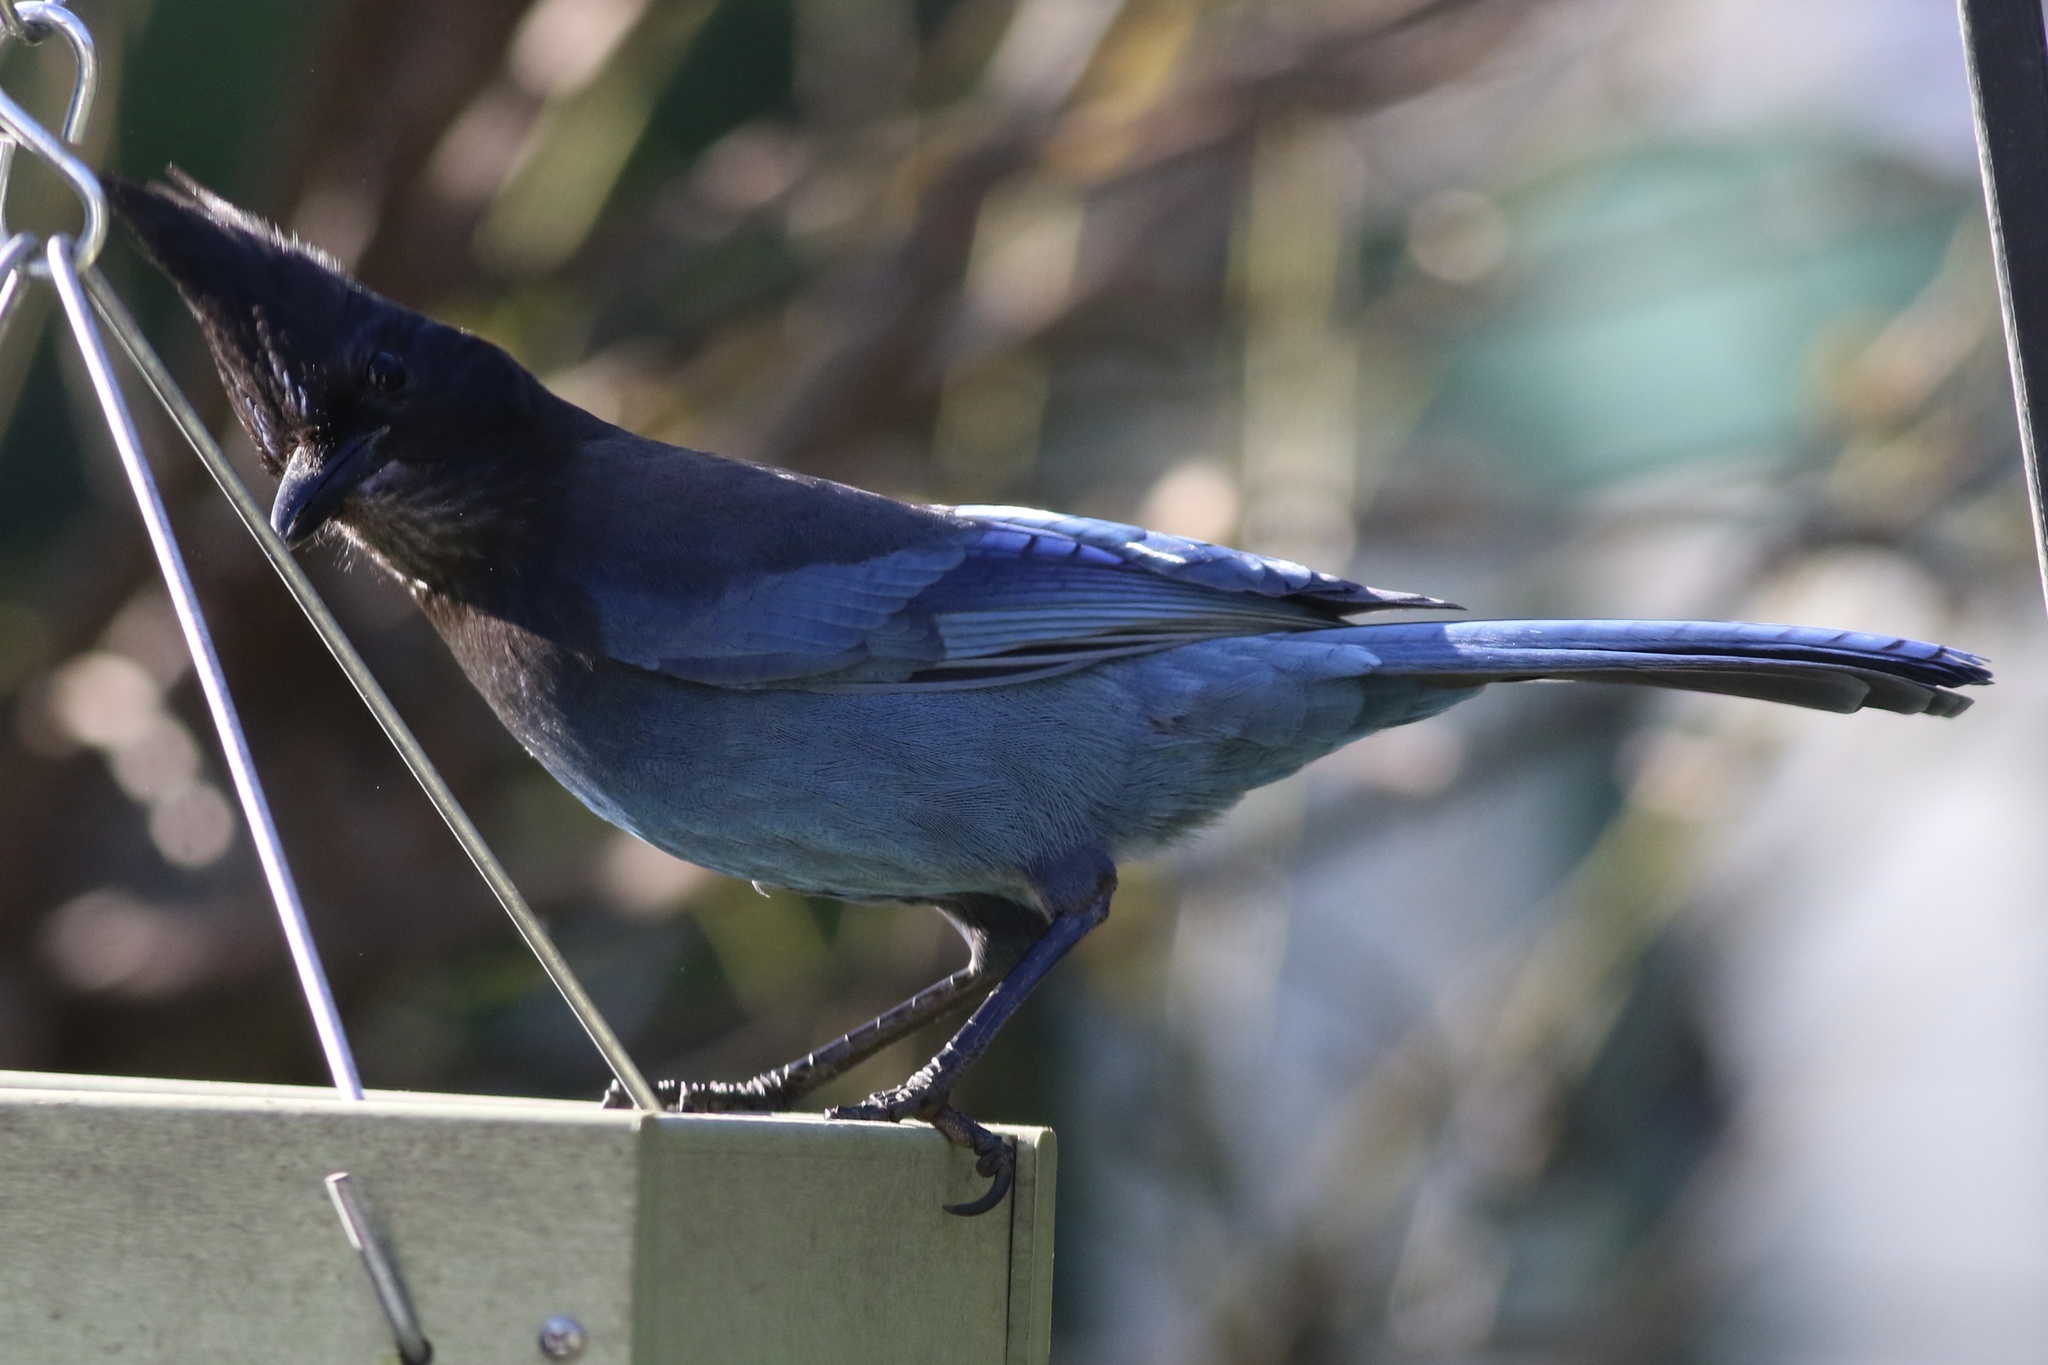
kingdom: Animalia
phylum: Chordata
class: Aves
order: Passeriformes
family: Corvidae
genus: Cyanocitta
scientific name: Cyanocitta stelleri
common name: Steller's jay
